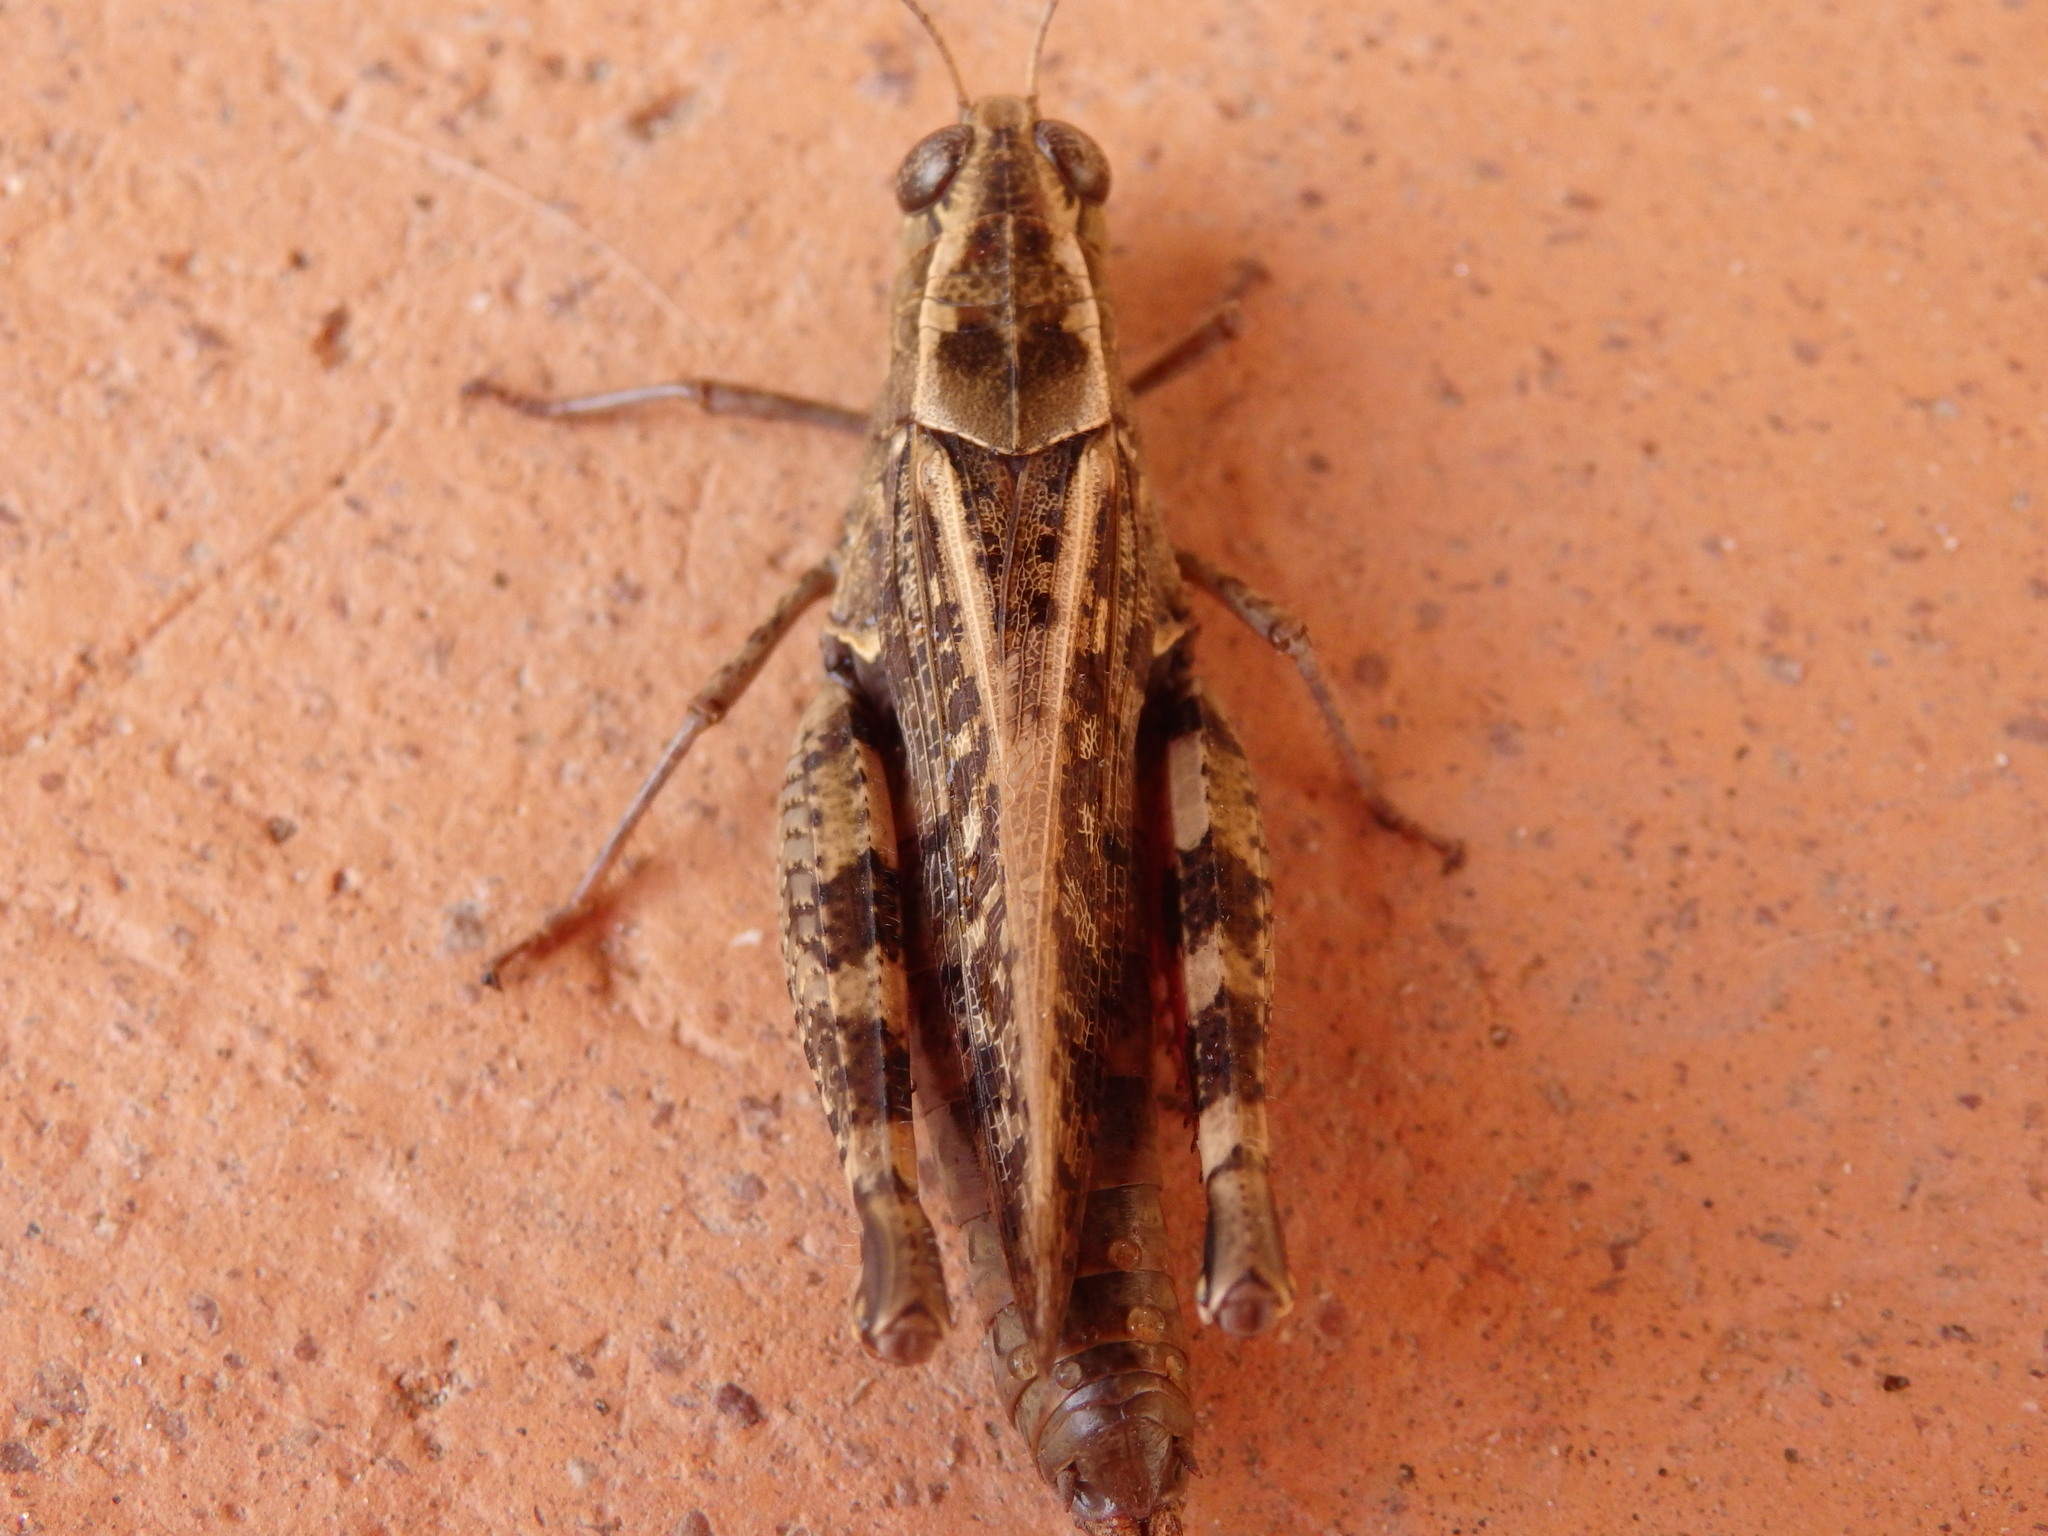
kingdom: Animalia
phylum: Arthropoda
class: Insecta
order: Orthoptera
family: Acrididae
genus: Calliptamus
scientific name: Calliptamus barbarus
